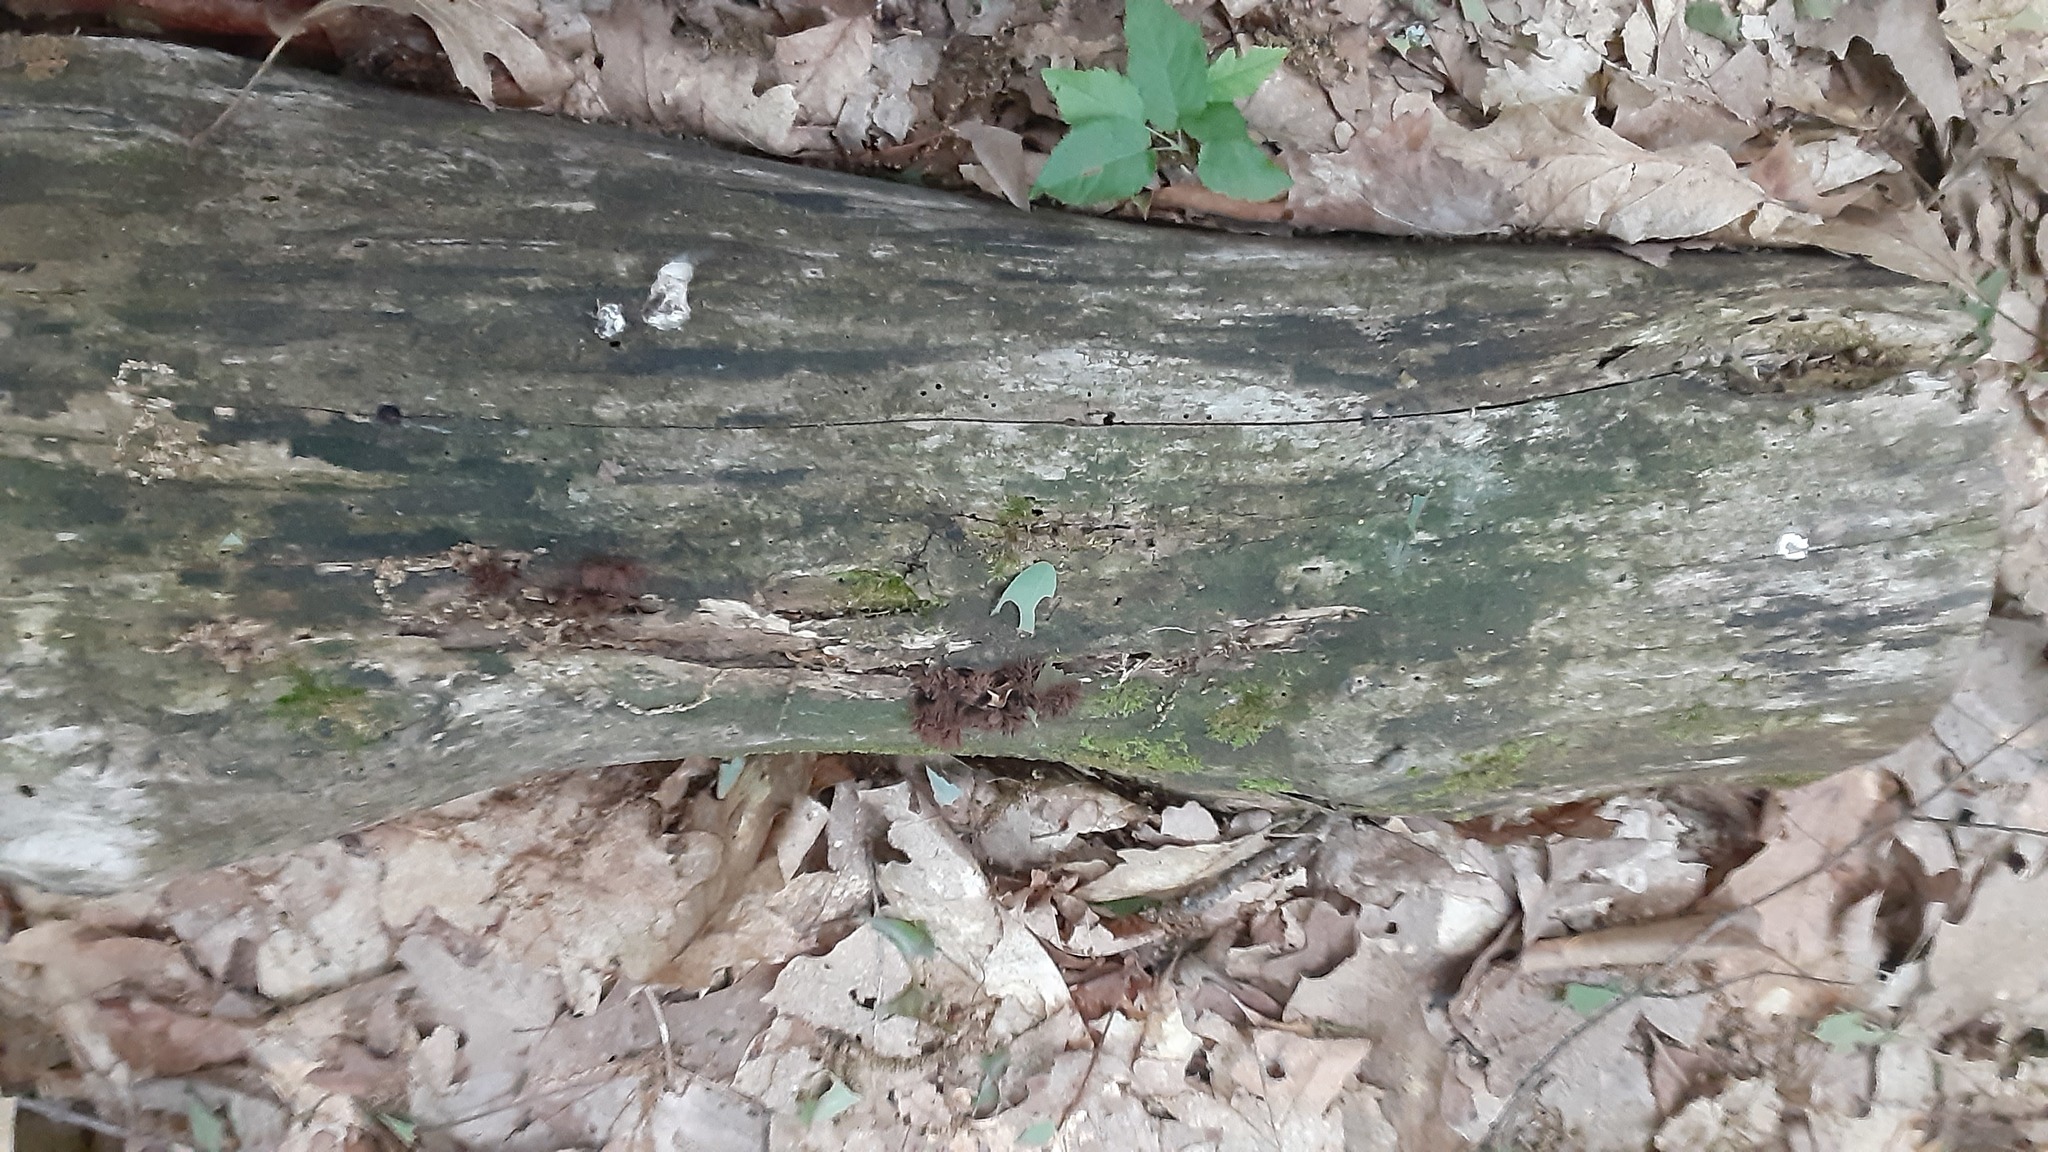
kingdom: Protozoa
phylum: Mycetozoa
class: Myxomycetes
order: Stemonitidales
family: Stemonitidaceae
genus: Stemonitis
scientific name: Stemonitis splendens
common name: Chocolate tube slime
